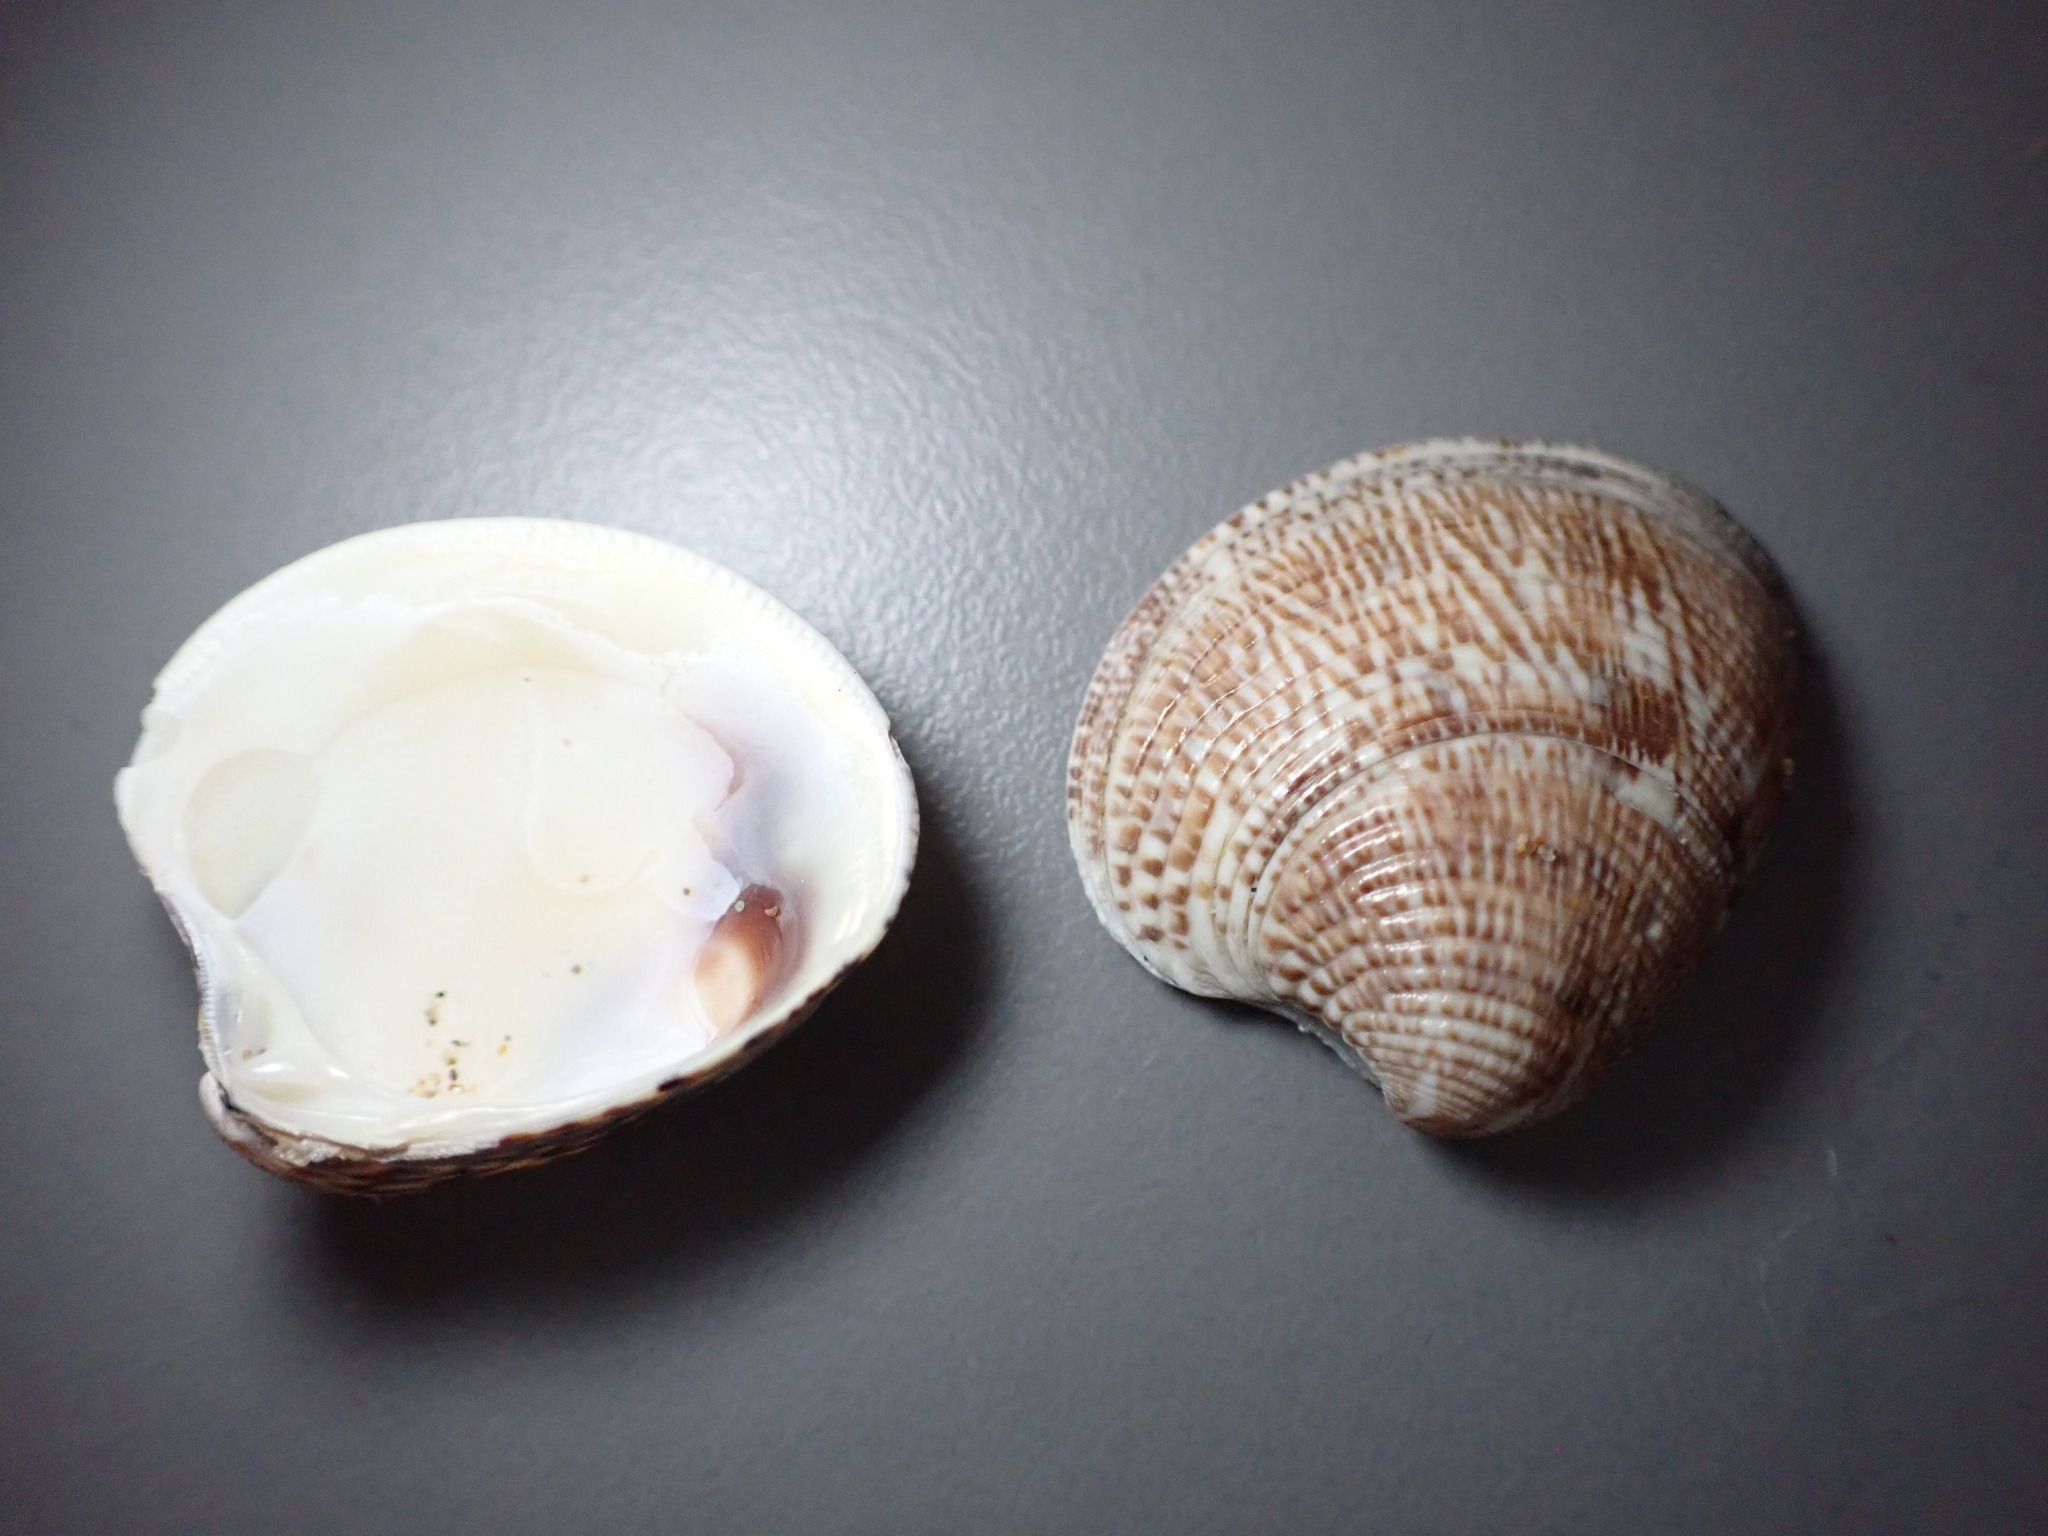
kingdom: Animalia
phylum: Mollusca
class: Bivalvia
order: Venerida
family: Veneridae
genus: Chamelea
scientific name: Chamelea gallina
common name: Chicken venus
